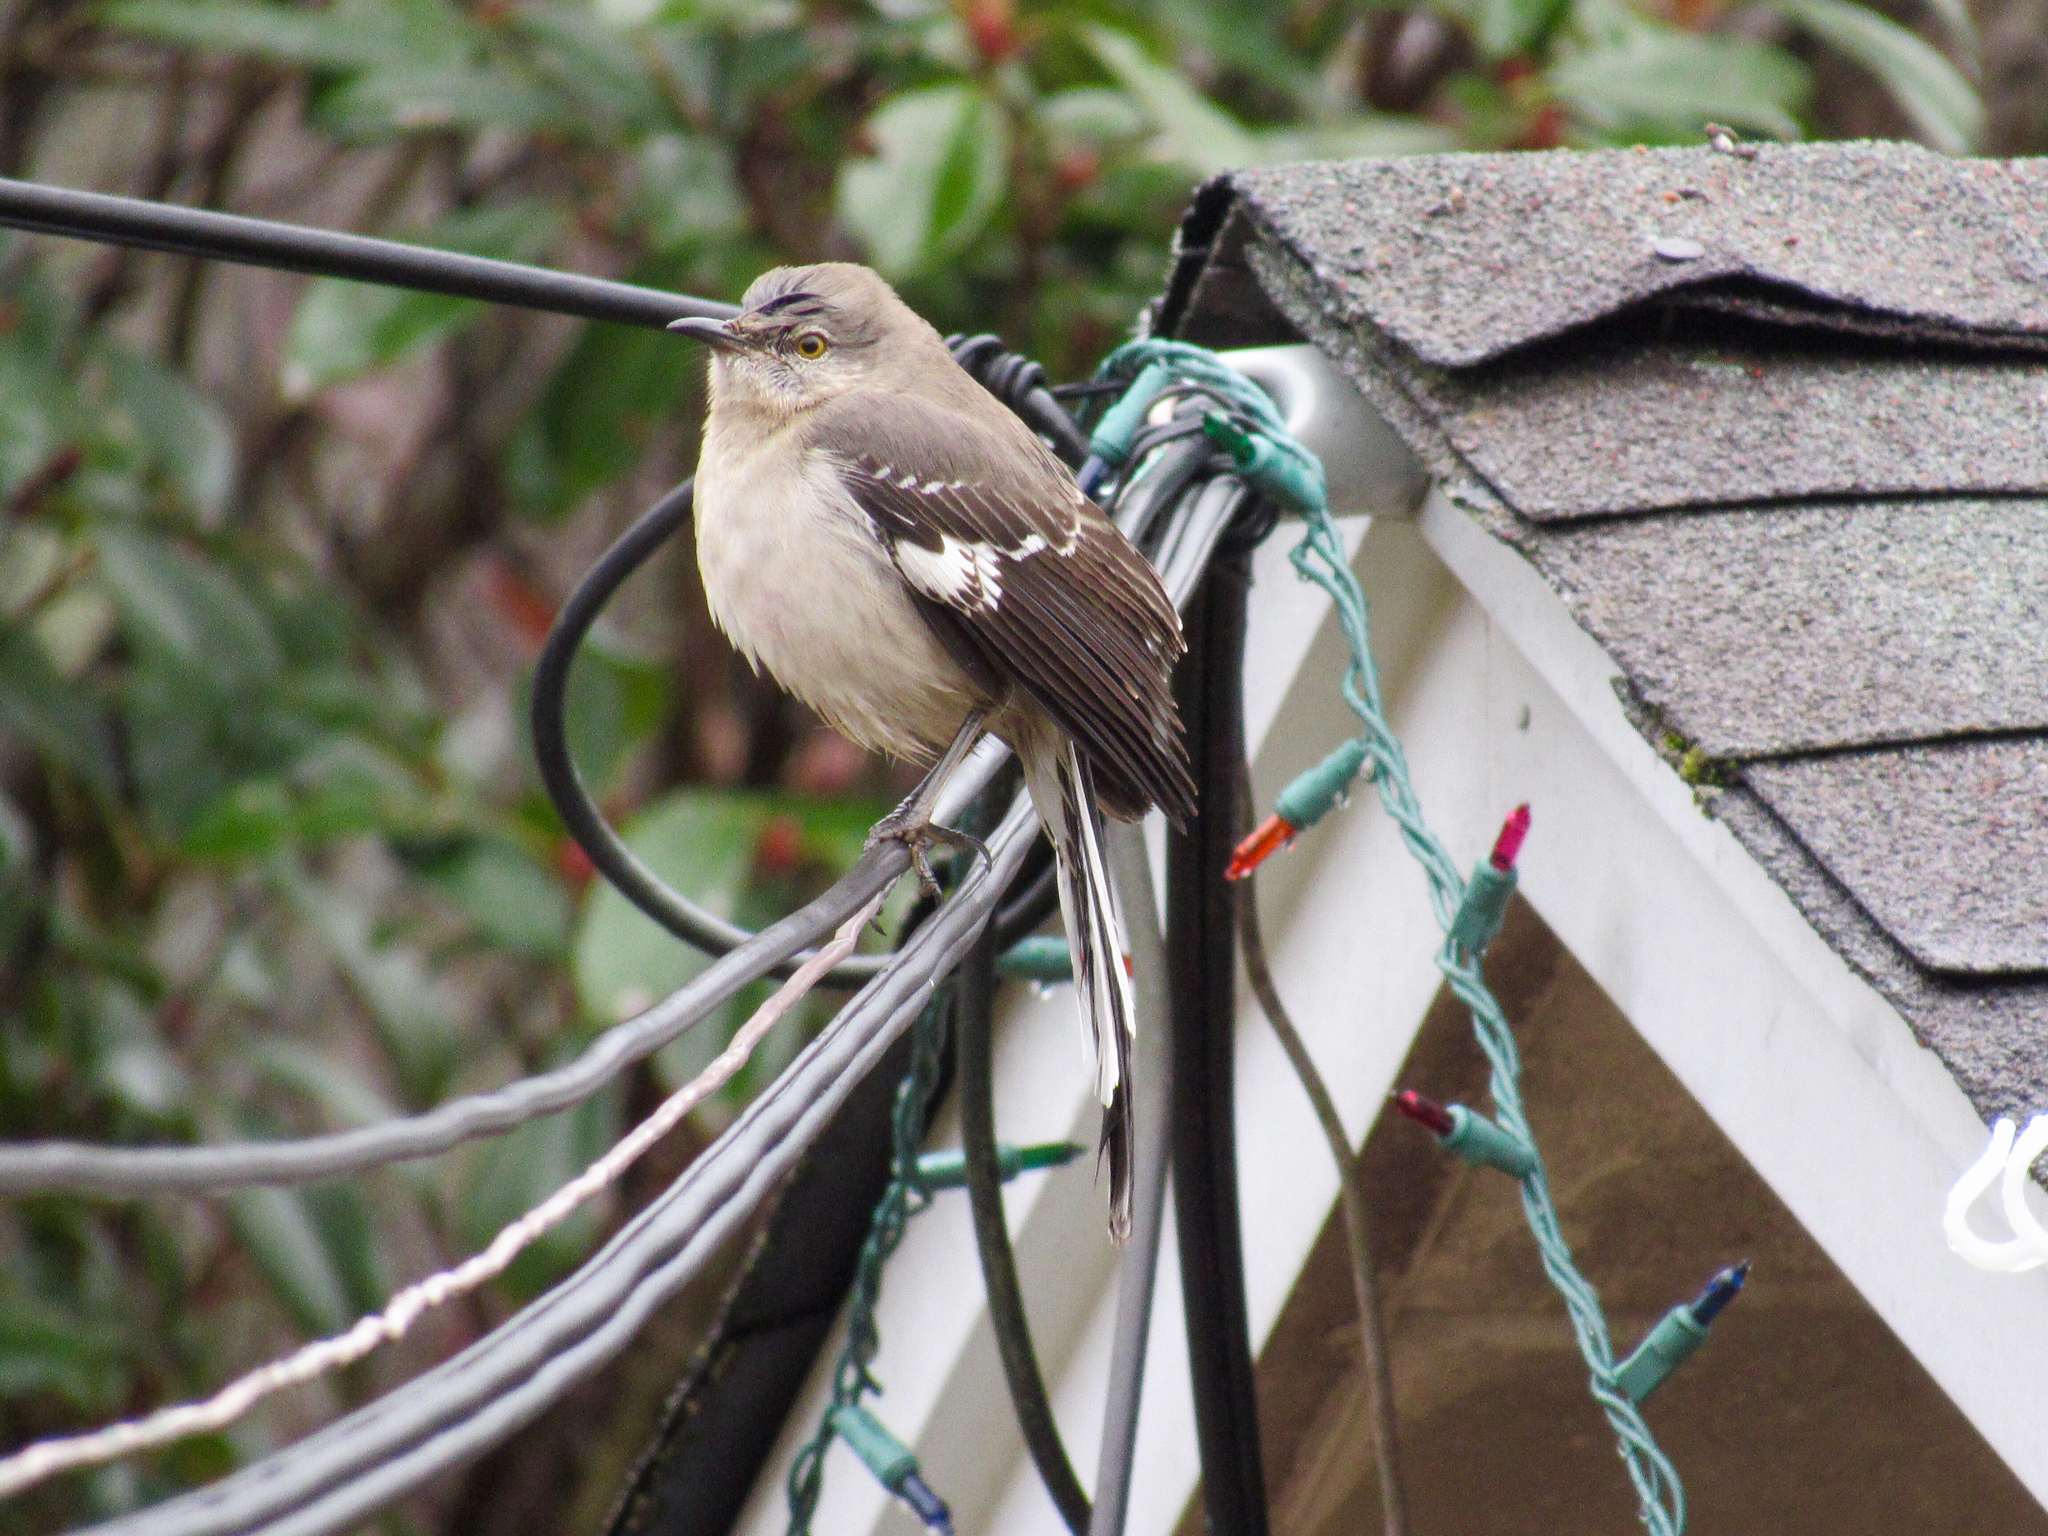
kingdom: Animalia
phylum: Chordata
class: Aves
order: Passeriformes
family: Mimidae
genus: Mimus
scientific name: Mimus polyglottos
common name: Northern mockingbird
